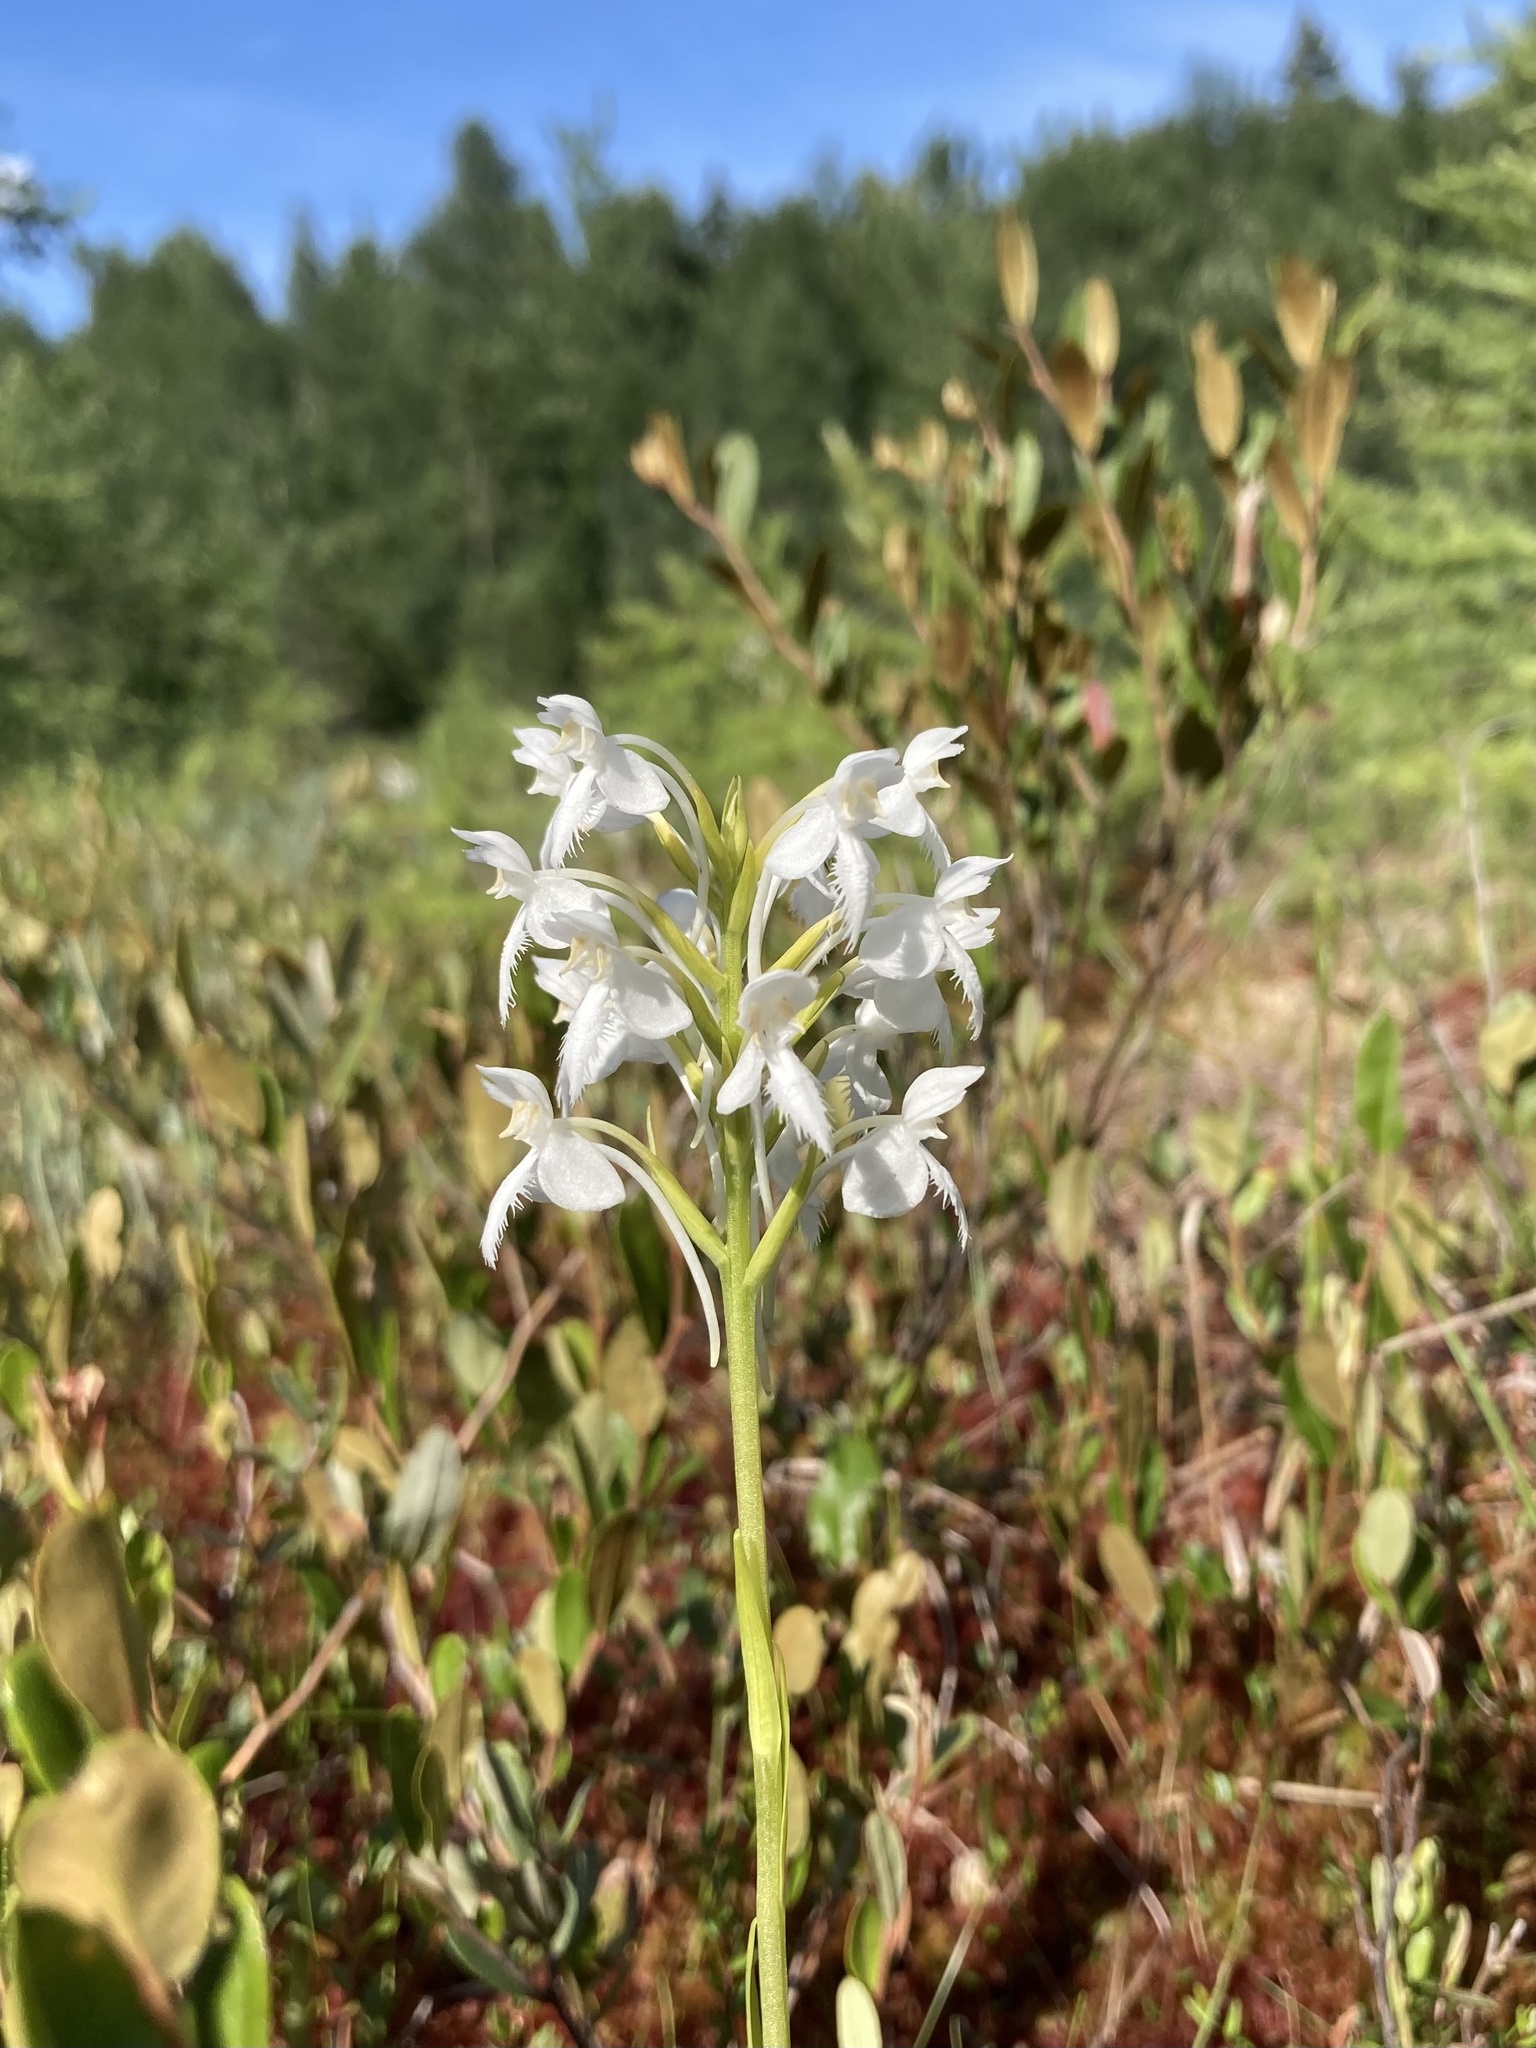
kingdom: Plantae
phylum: Tracheophyta
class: Liliopsida
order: Asparagales
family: Orchidaceae
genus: Platanthera
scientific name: Platanthera blephariglottis
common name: White fringed orchid
